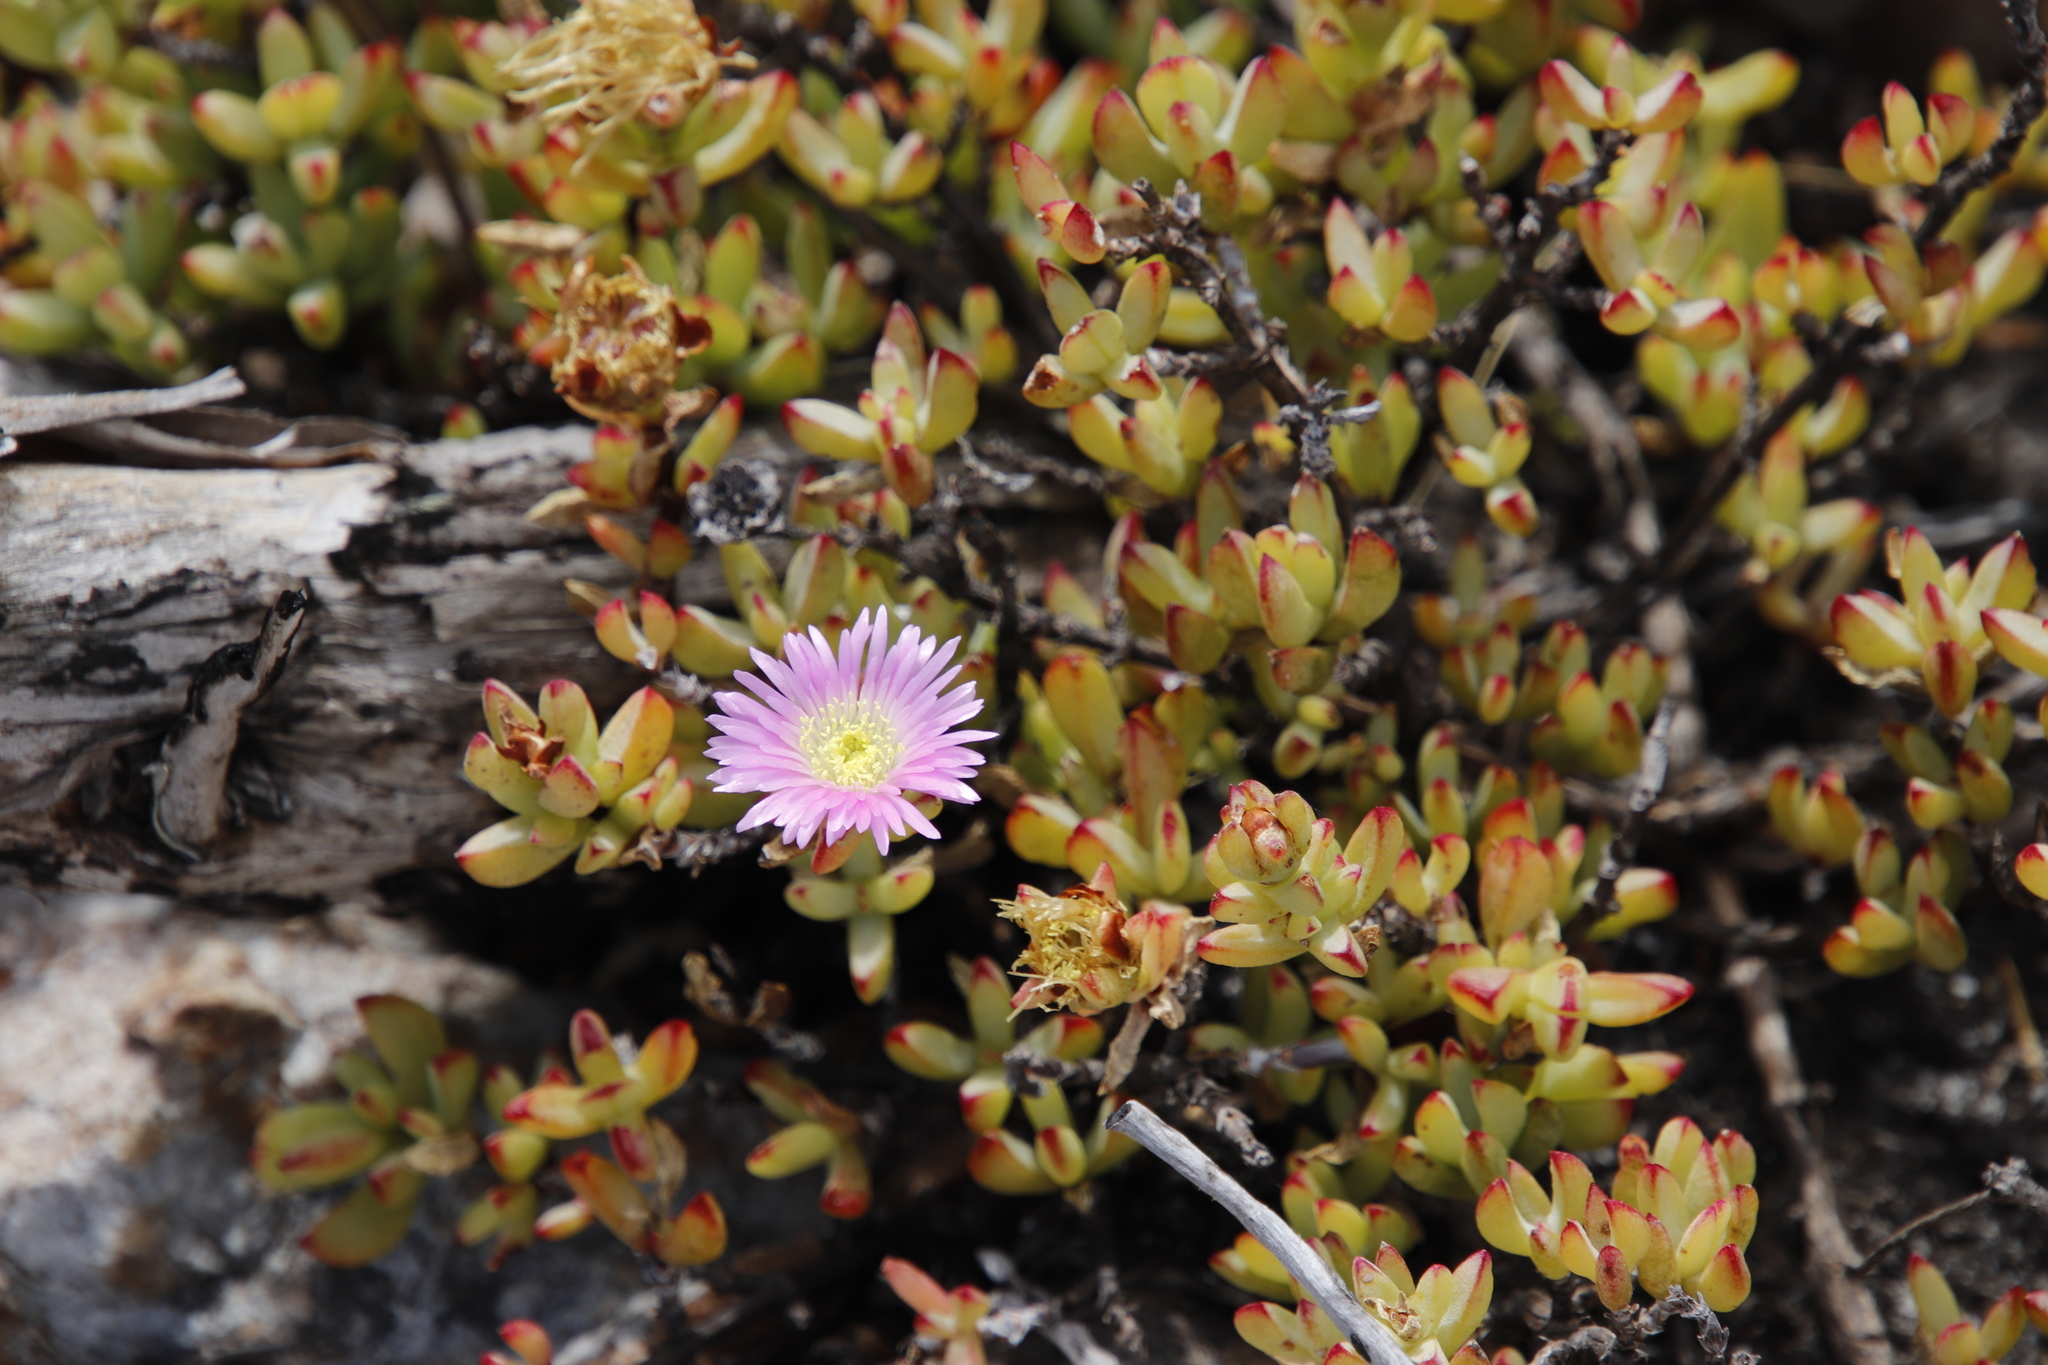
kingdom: Plantae
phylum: Tracheophyta
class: Magnoliopsida
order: Caryophyllales
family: Aizoaceae
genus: Oscularia
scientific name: Oscularia falciformis
